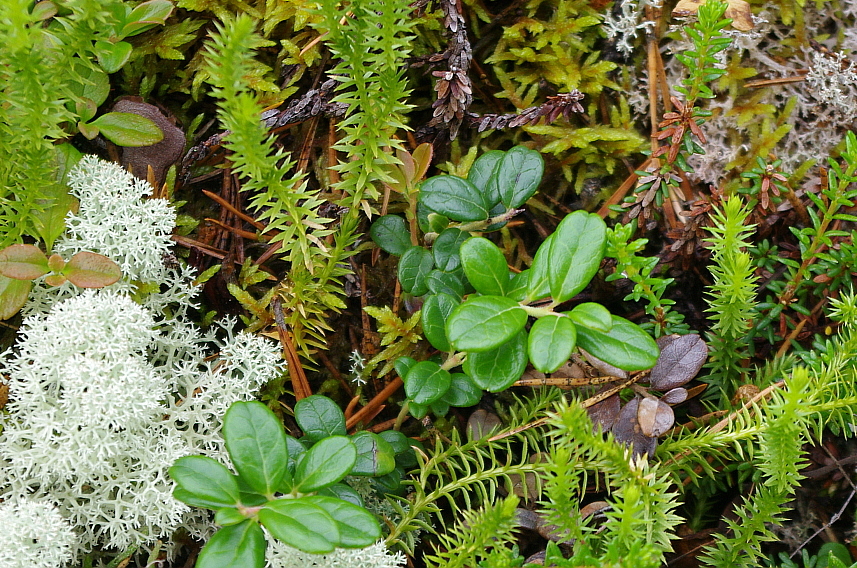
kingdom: Plantae
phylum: Tracheophyta
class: Magnoliopsida
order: Ericales
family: Ericaceae
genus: Vaccinium
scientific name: Vaccinium vitis-idaea
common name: Cowberry
